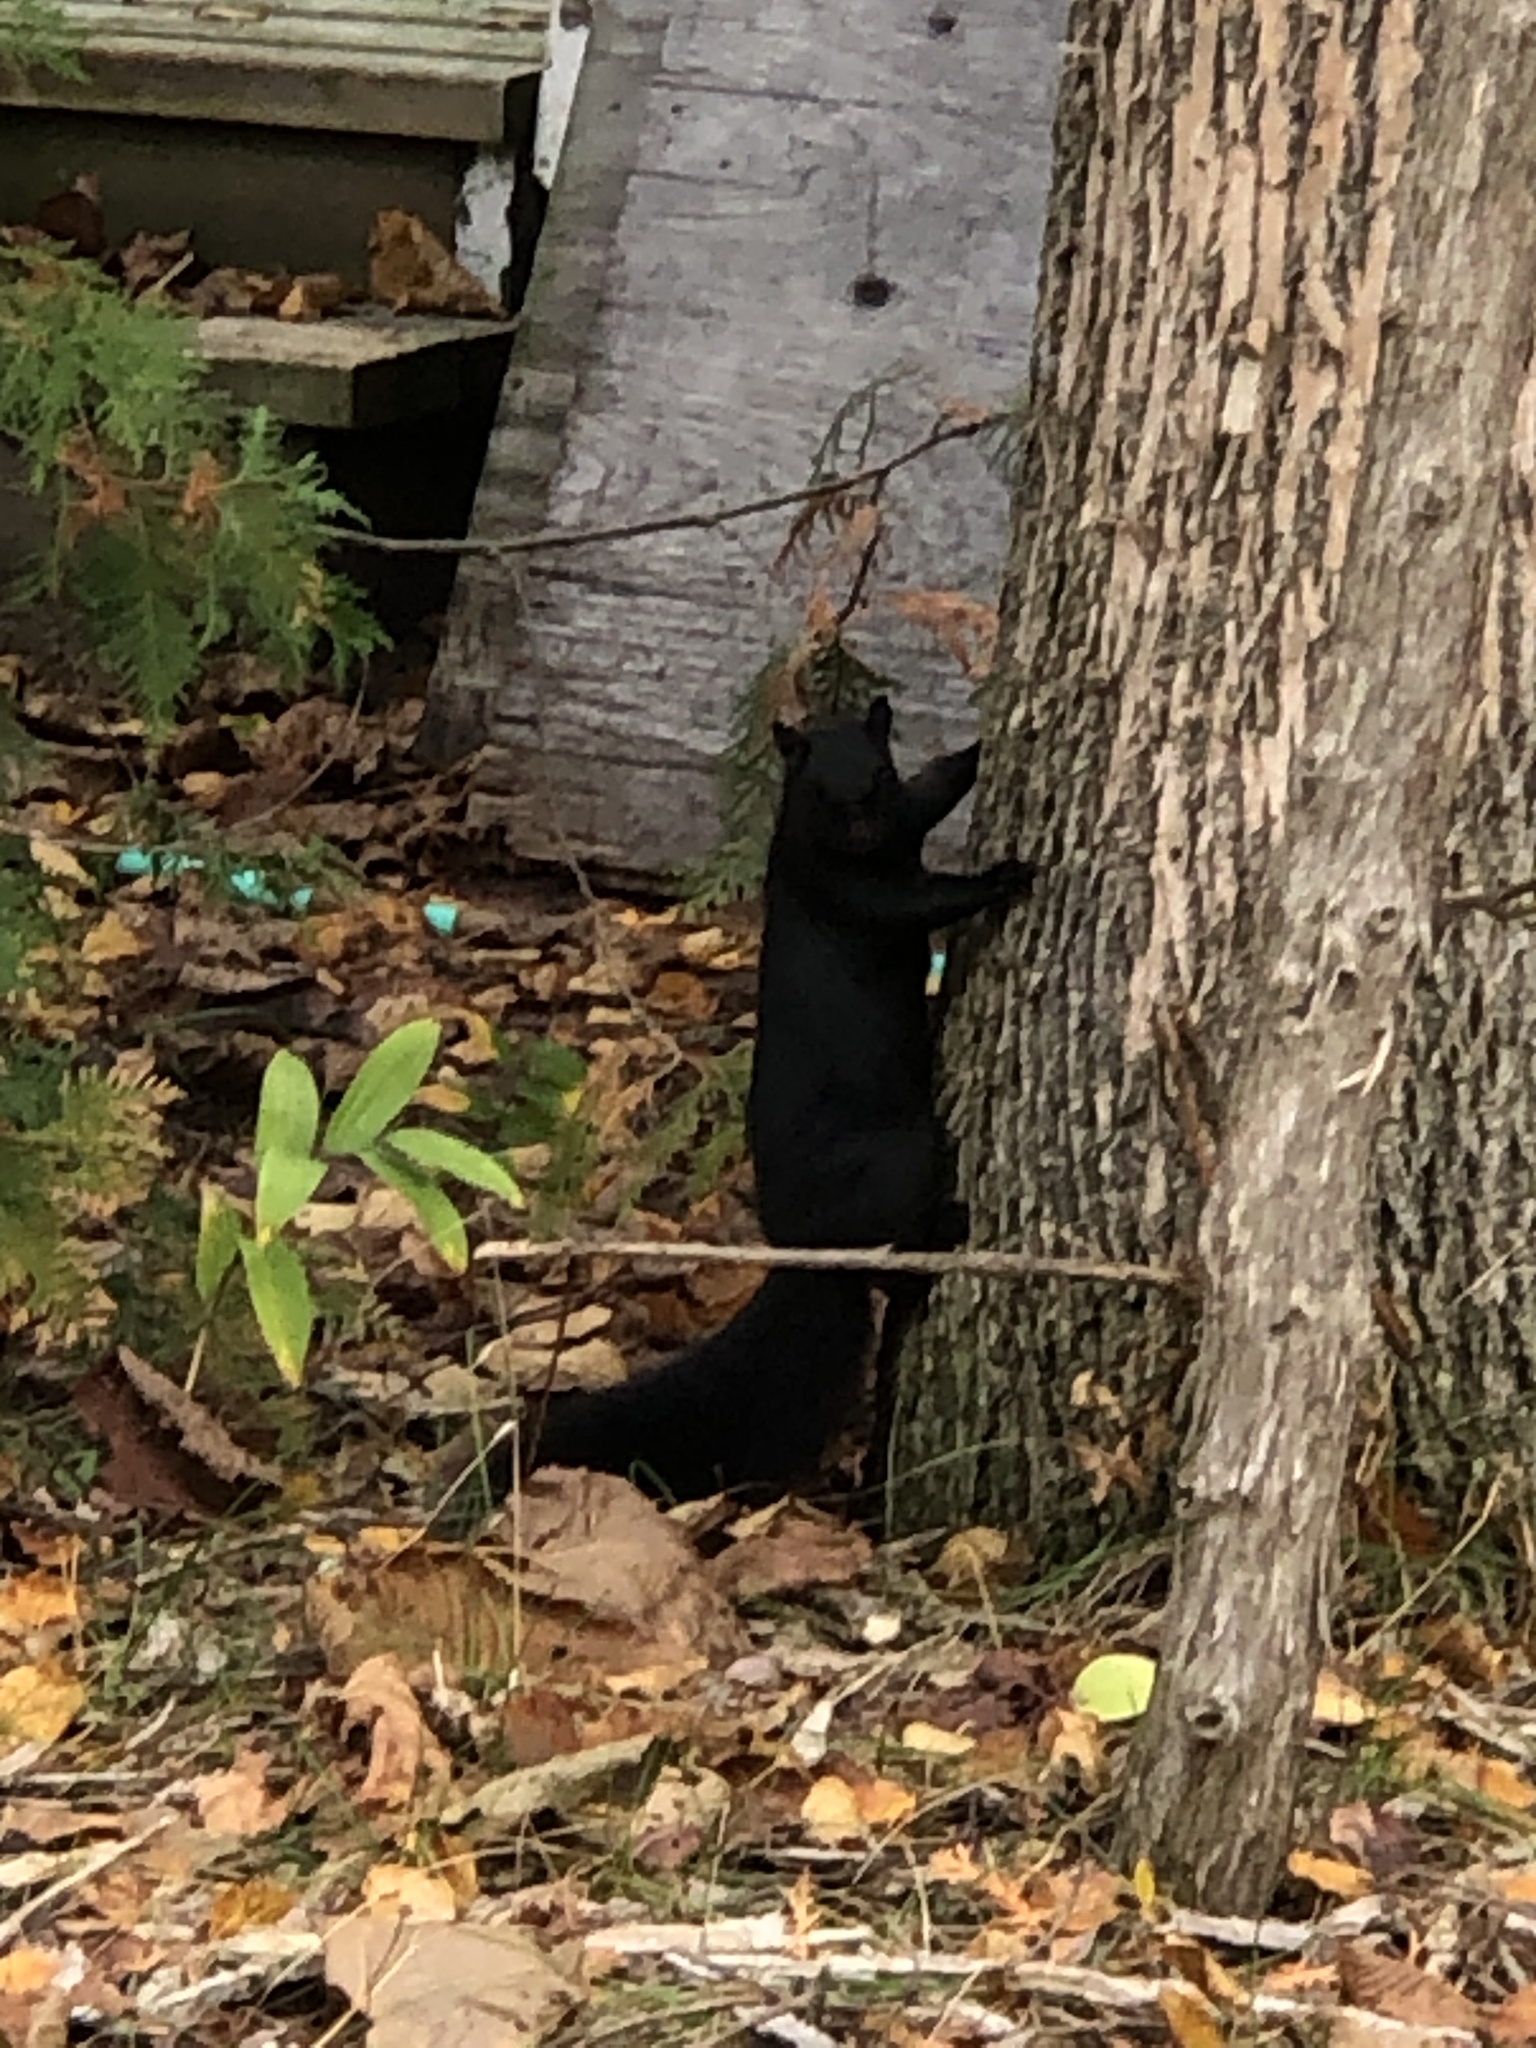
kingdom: Animalia
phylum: Chordata
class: Mammalia
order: Rodentia
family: Sciuridae
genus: Sciurus
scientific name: Sciurus carolinensis
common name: Eastern gray squirrel
